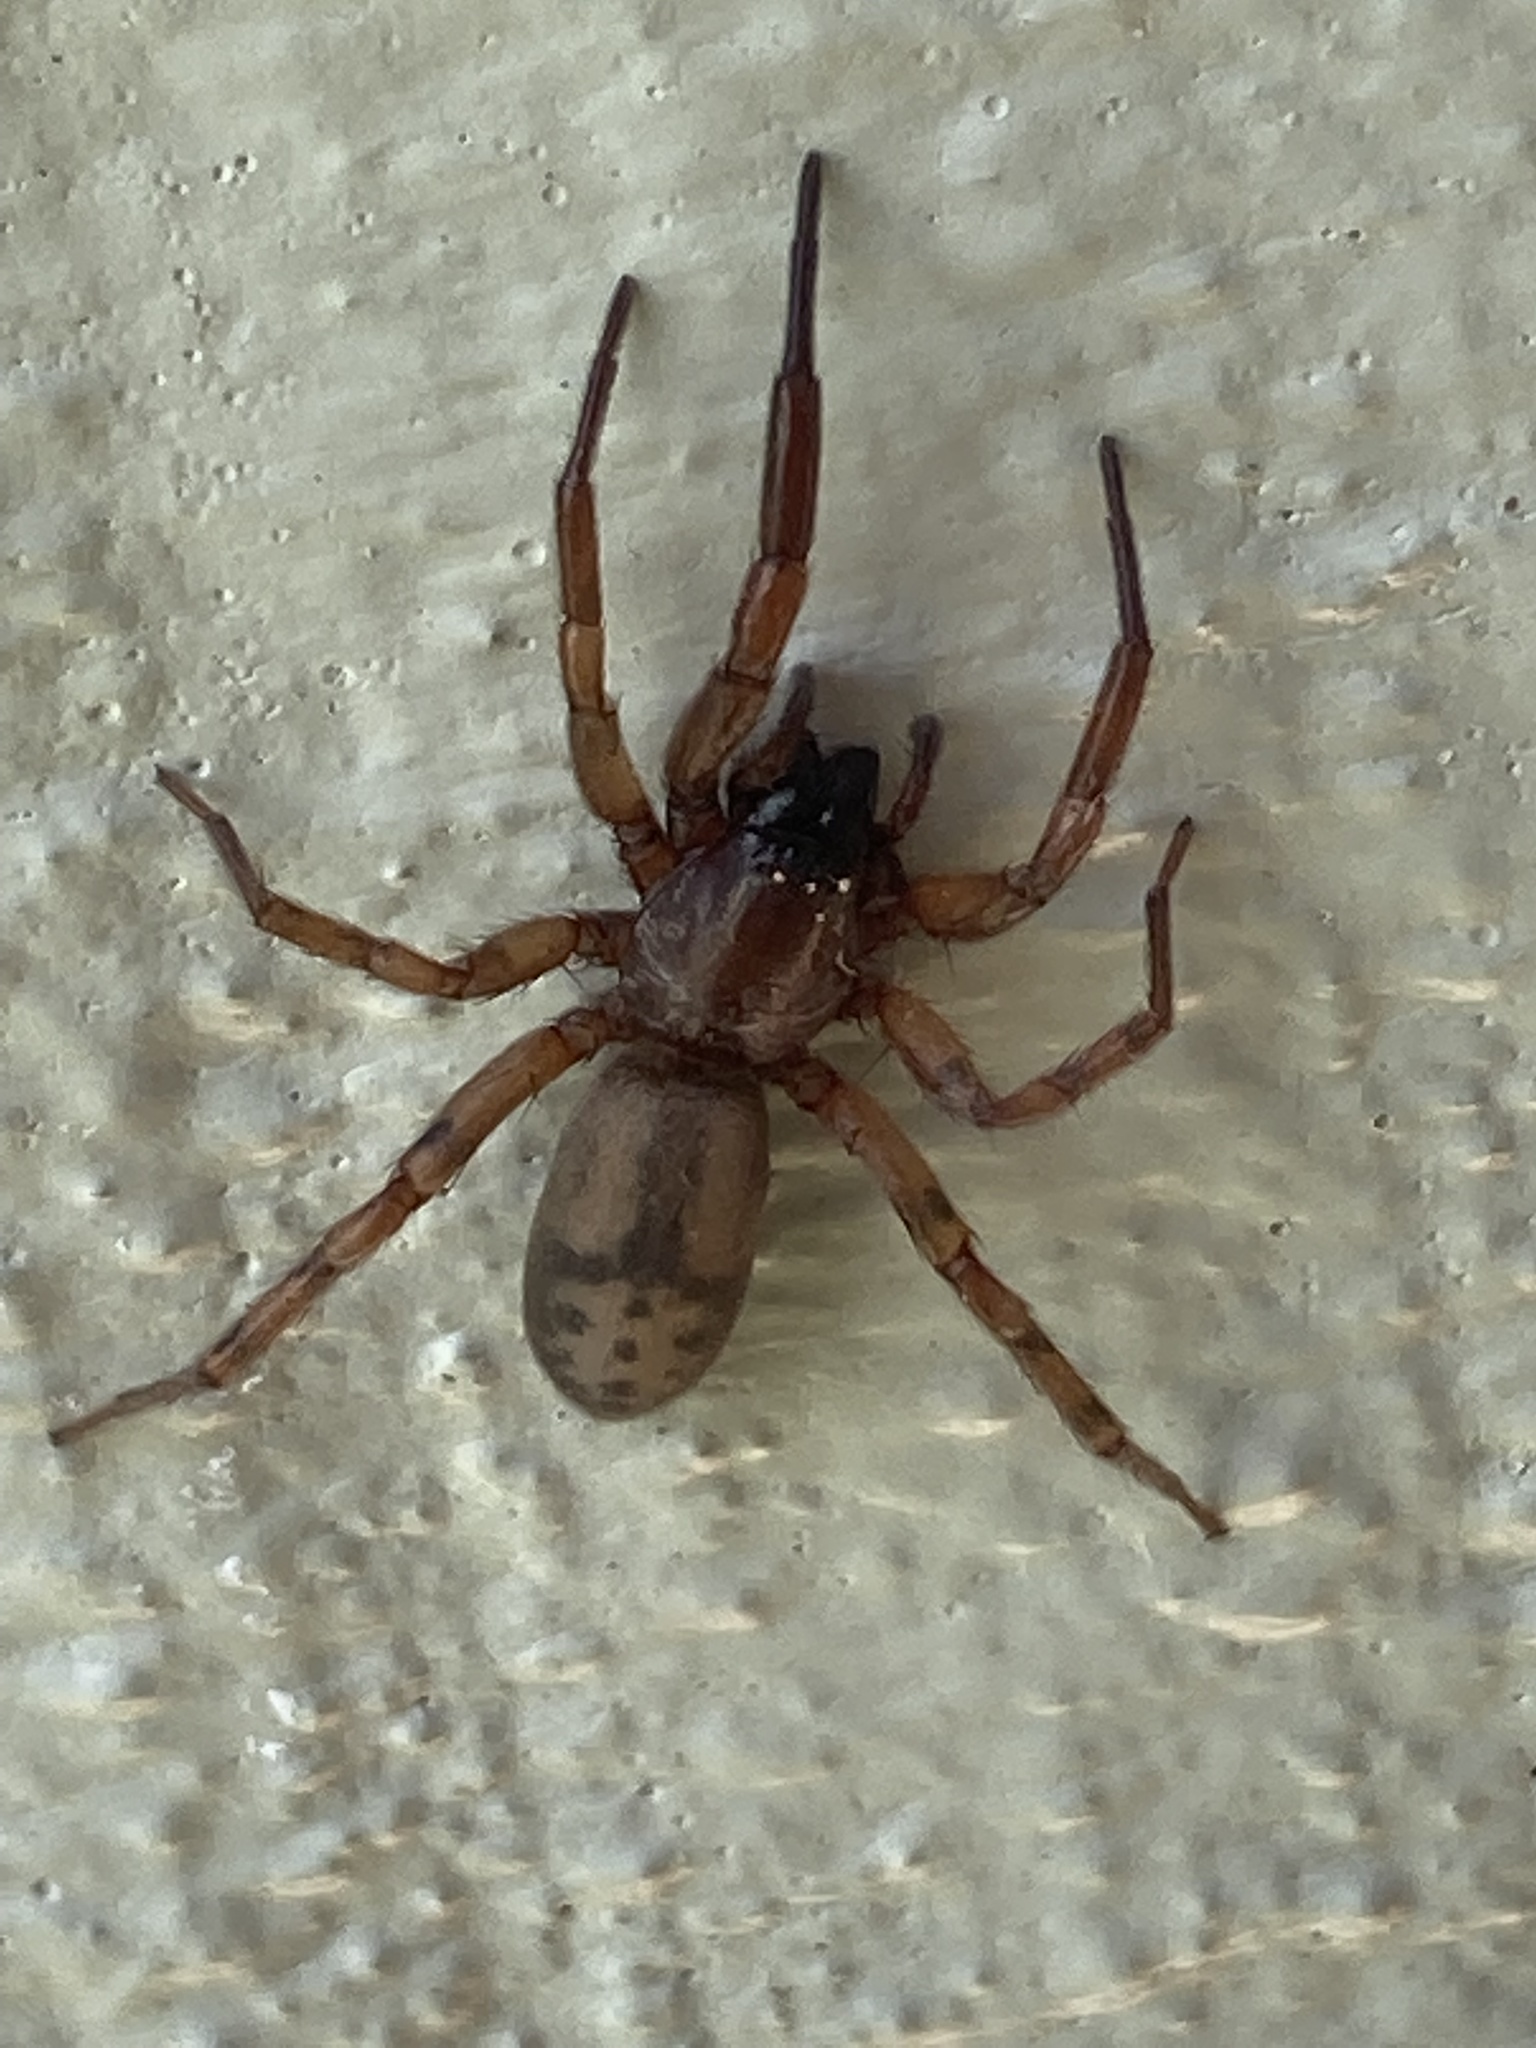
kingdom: Animalia
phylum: Arthropoda
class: Arachnida
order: Araneae
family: Gnaphosidae
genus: Intruda
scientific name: Intruda signata
